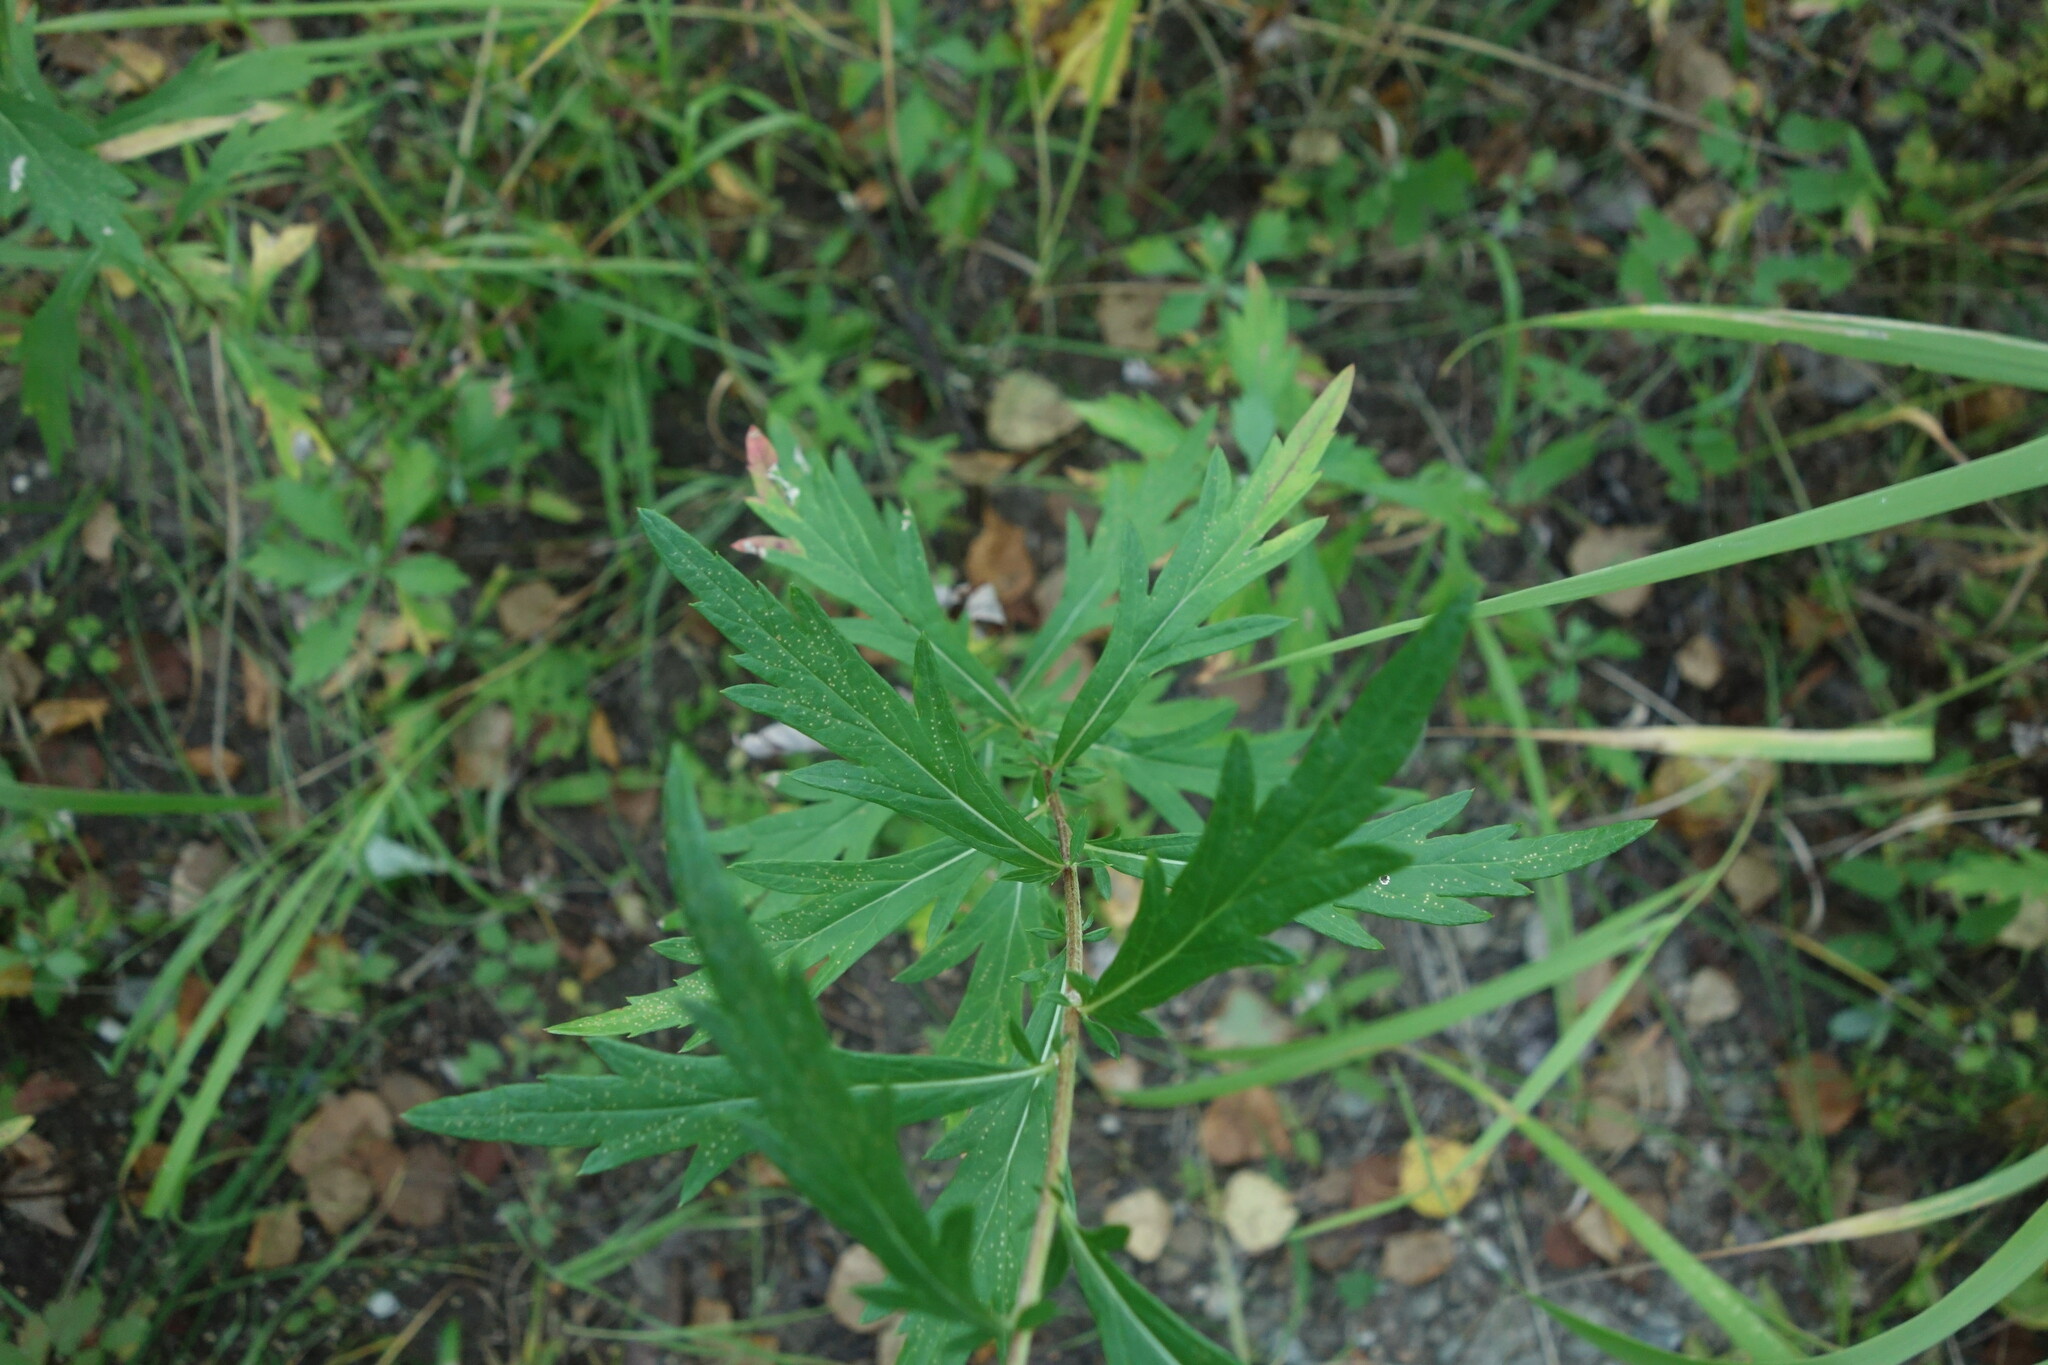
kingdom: Plantae
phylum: Tracheophyta
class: Magnoliopsida
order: Asterales
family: Asteraceae
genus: Artemisia
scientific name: Artemisia integrifolia
